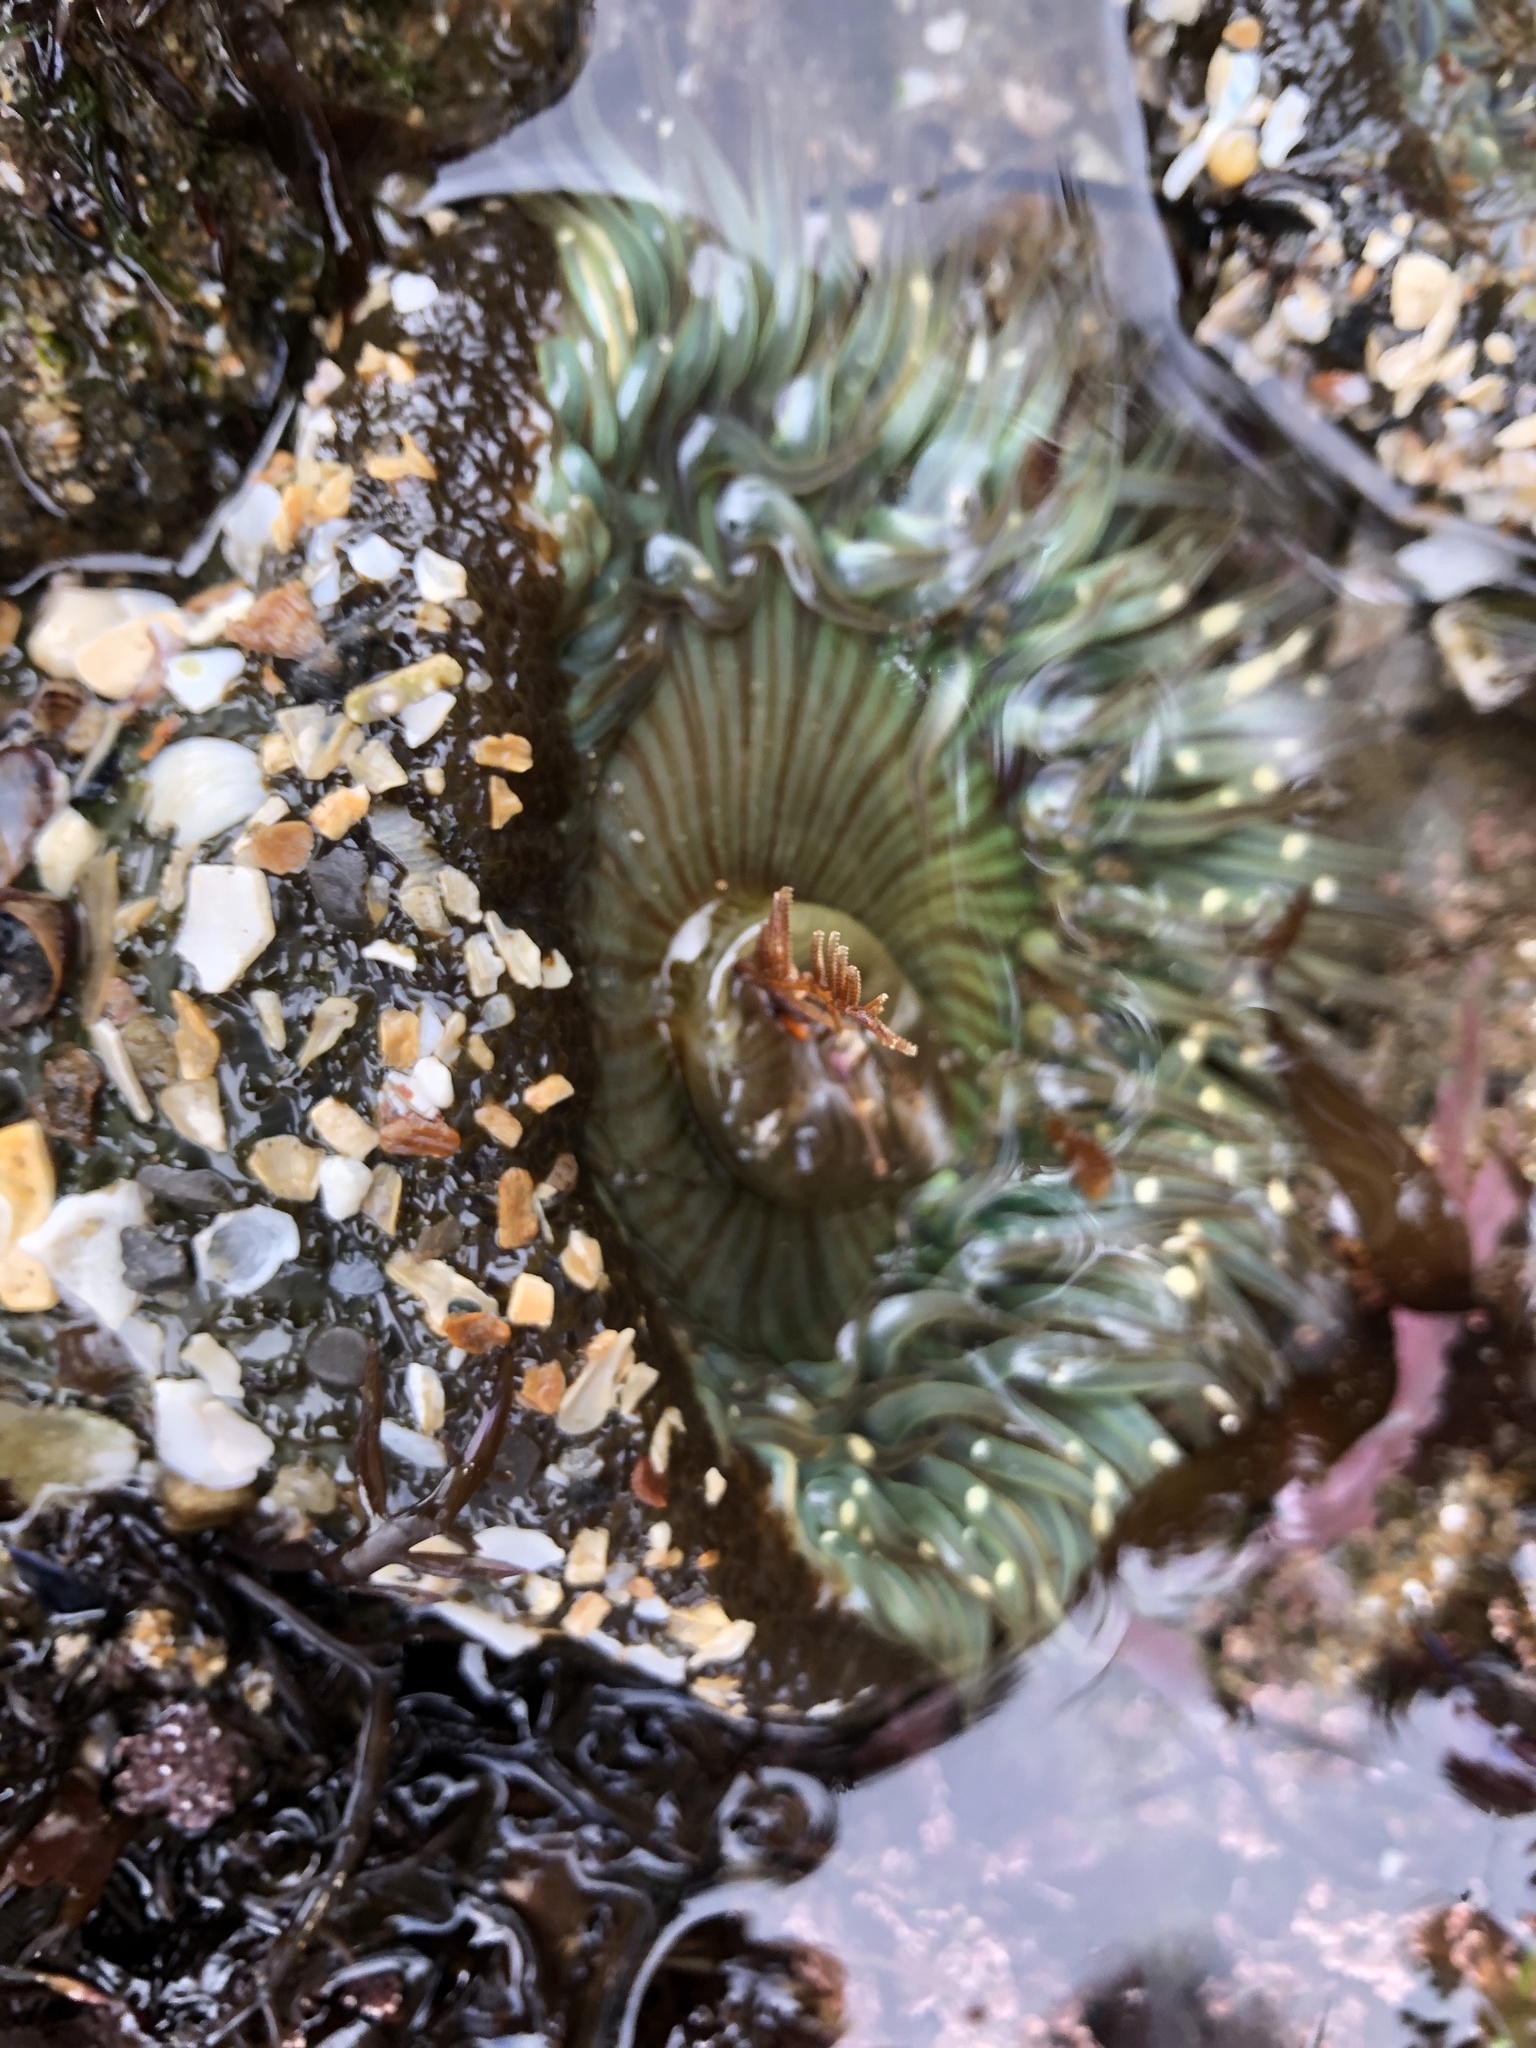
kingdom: Animalia
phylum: Cnidaria
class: Anthozoa
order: Actiniaria
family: Actiniidae
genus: Anthopleura
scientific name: Anthopleura sola
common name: Sun anemone
